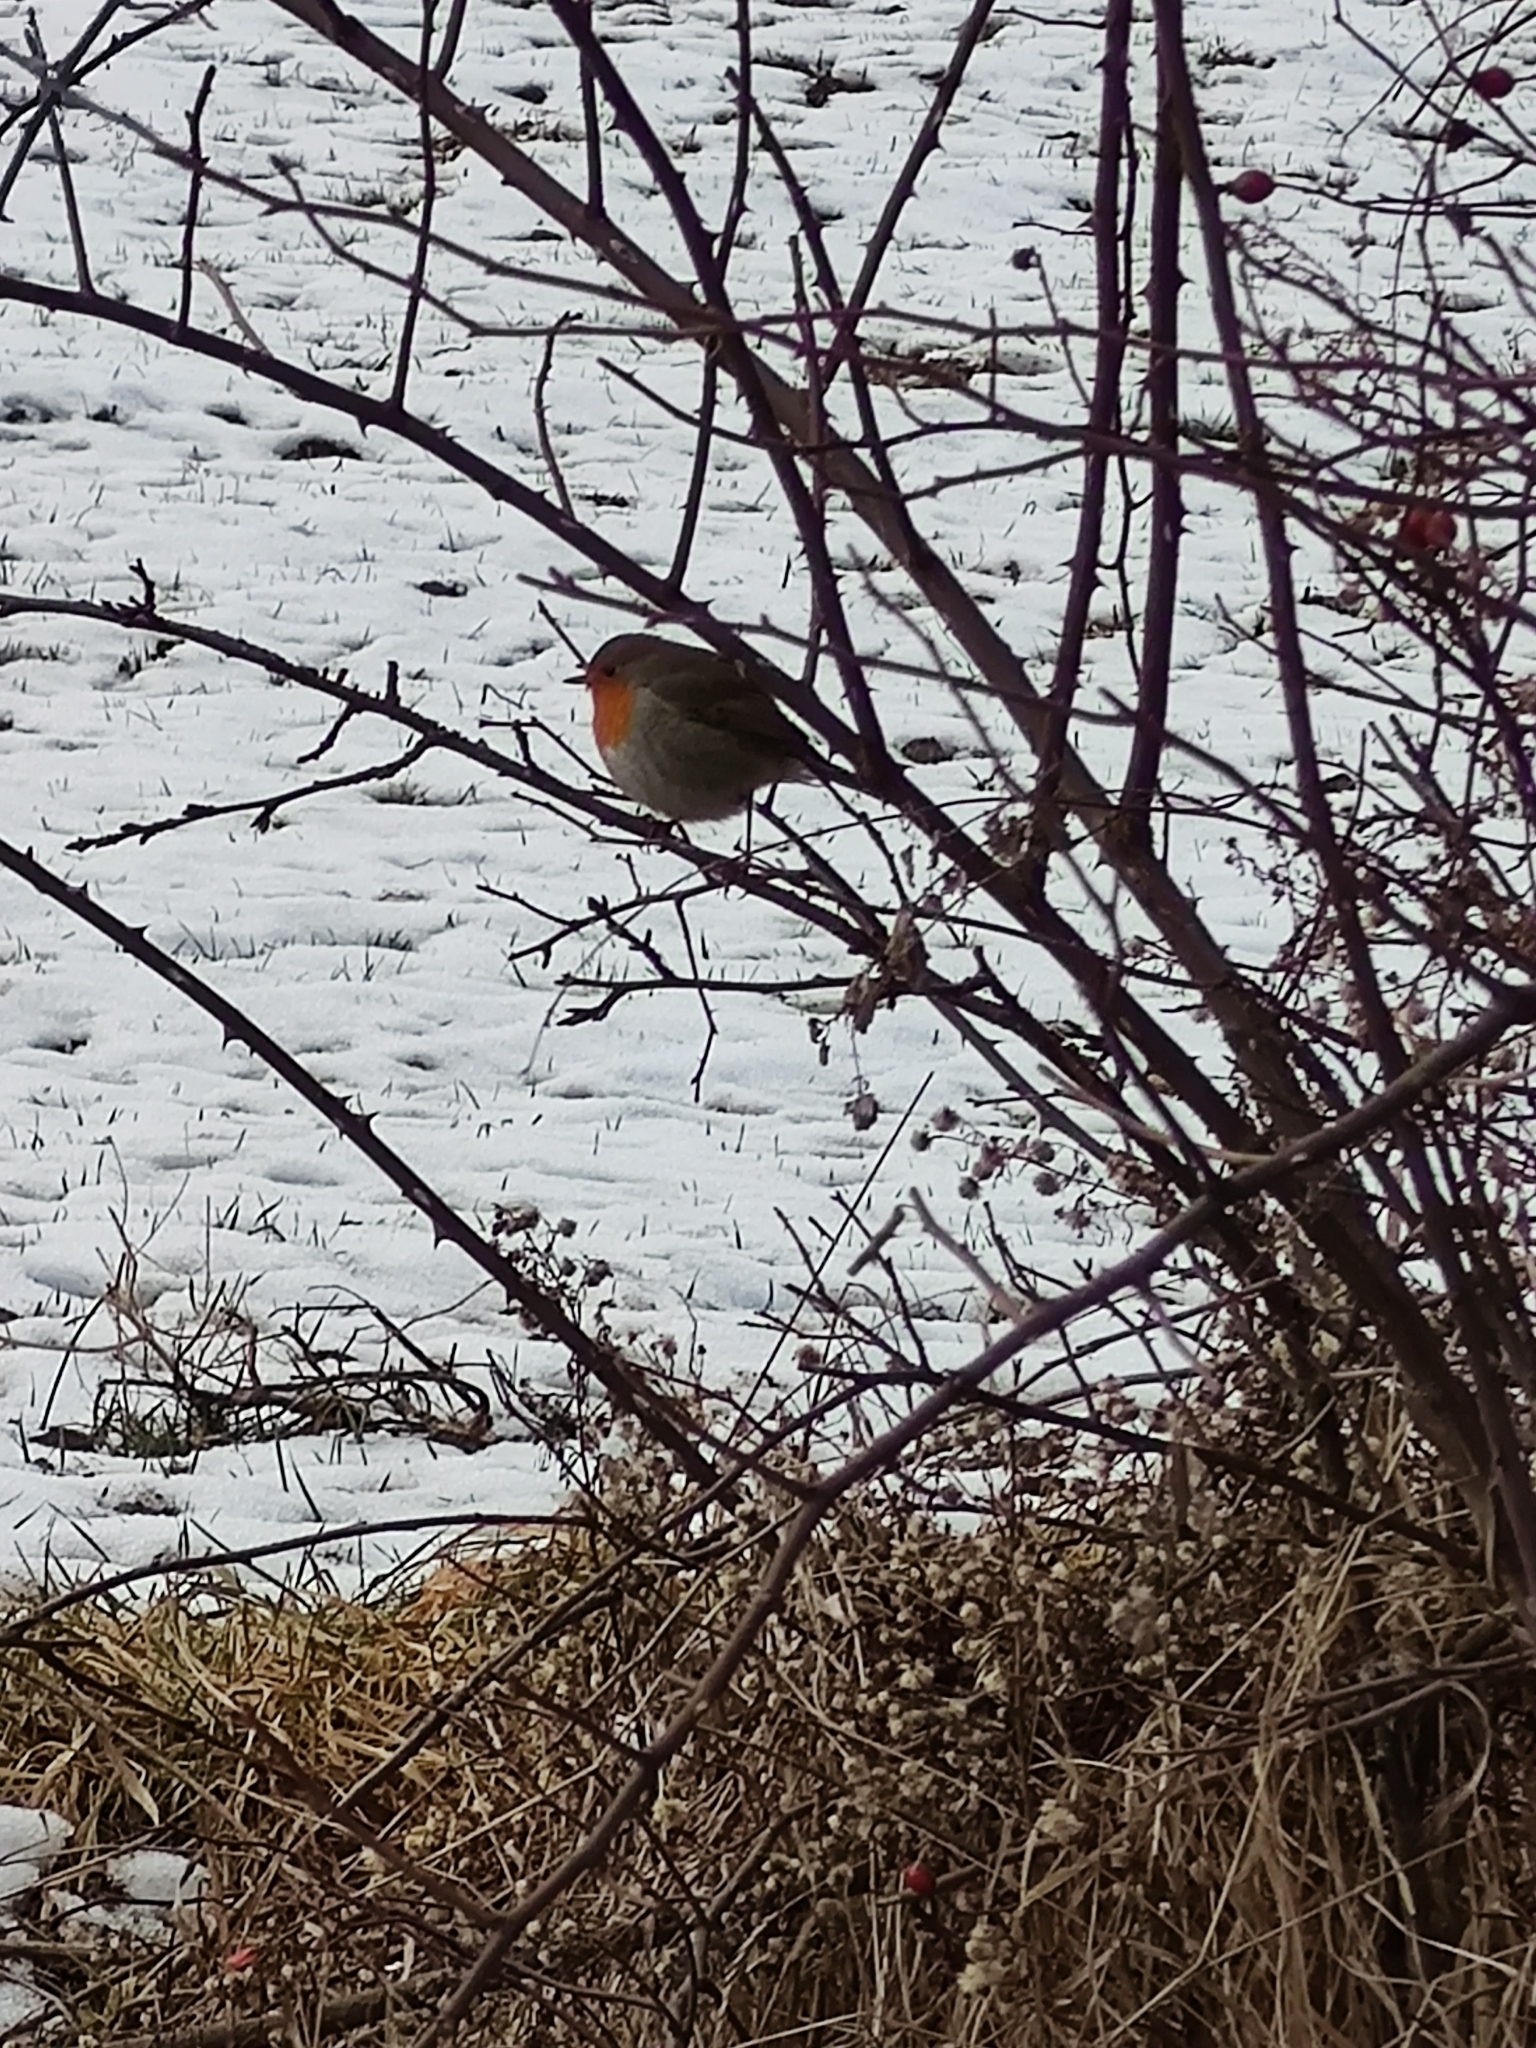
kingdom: Animalia
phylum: Chordata
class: Aves
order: Passeriformes
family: Muscicapidae
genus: Erithacus
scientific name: Erithacus rubecula
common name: European robin
